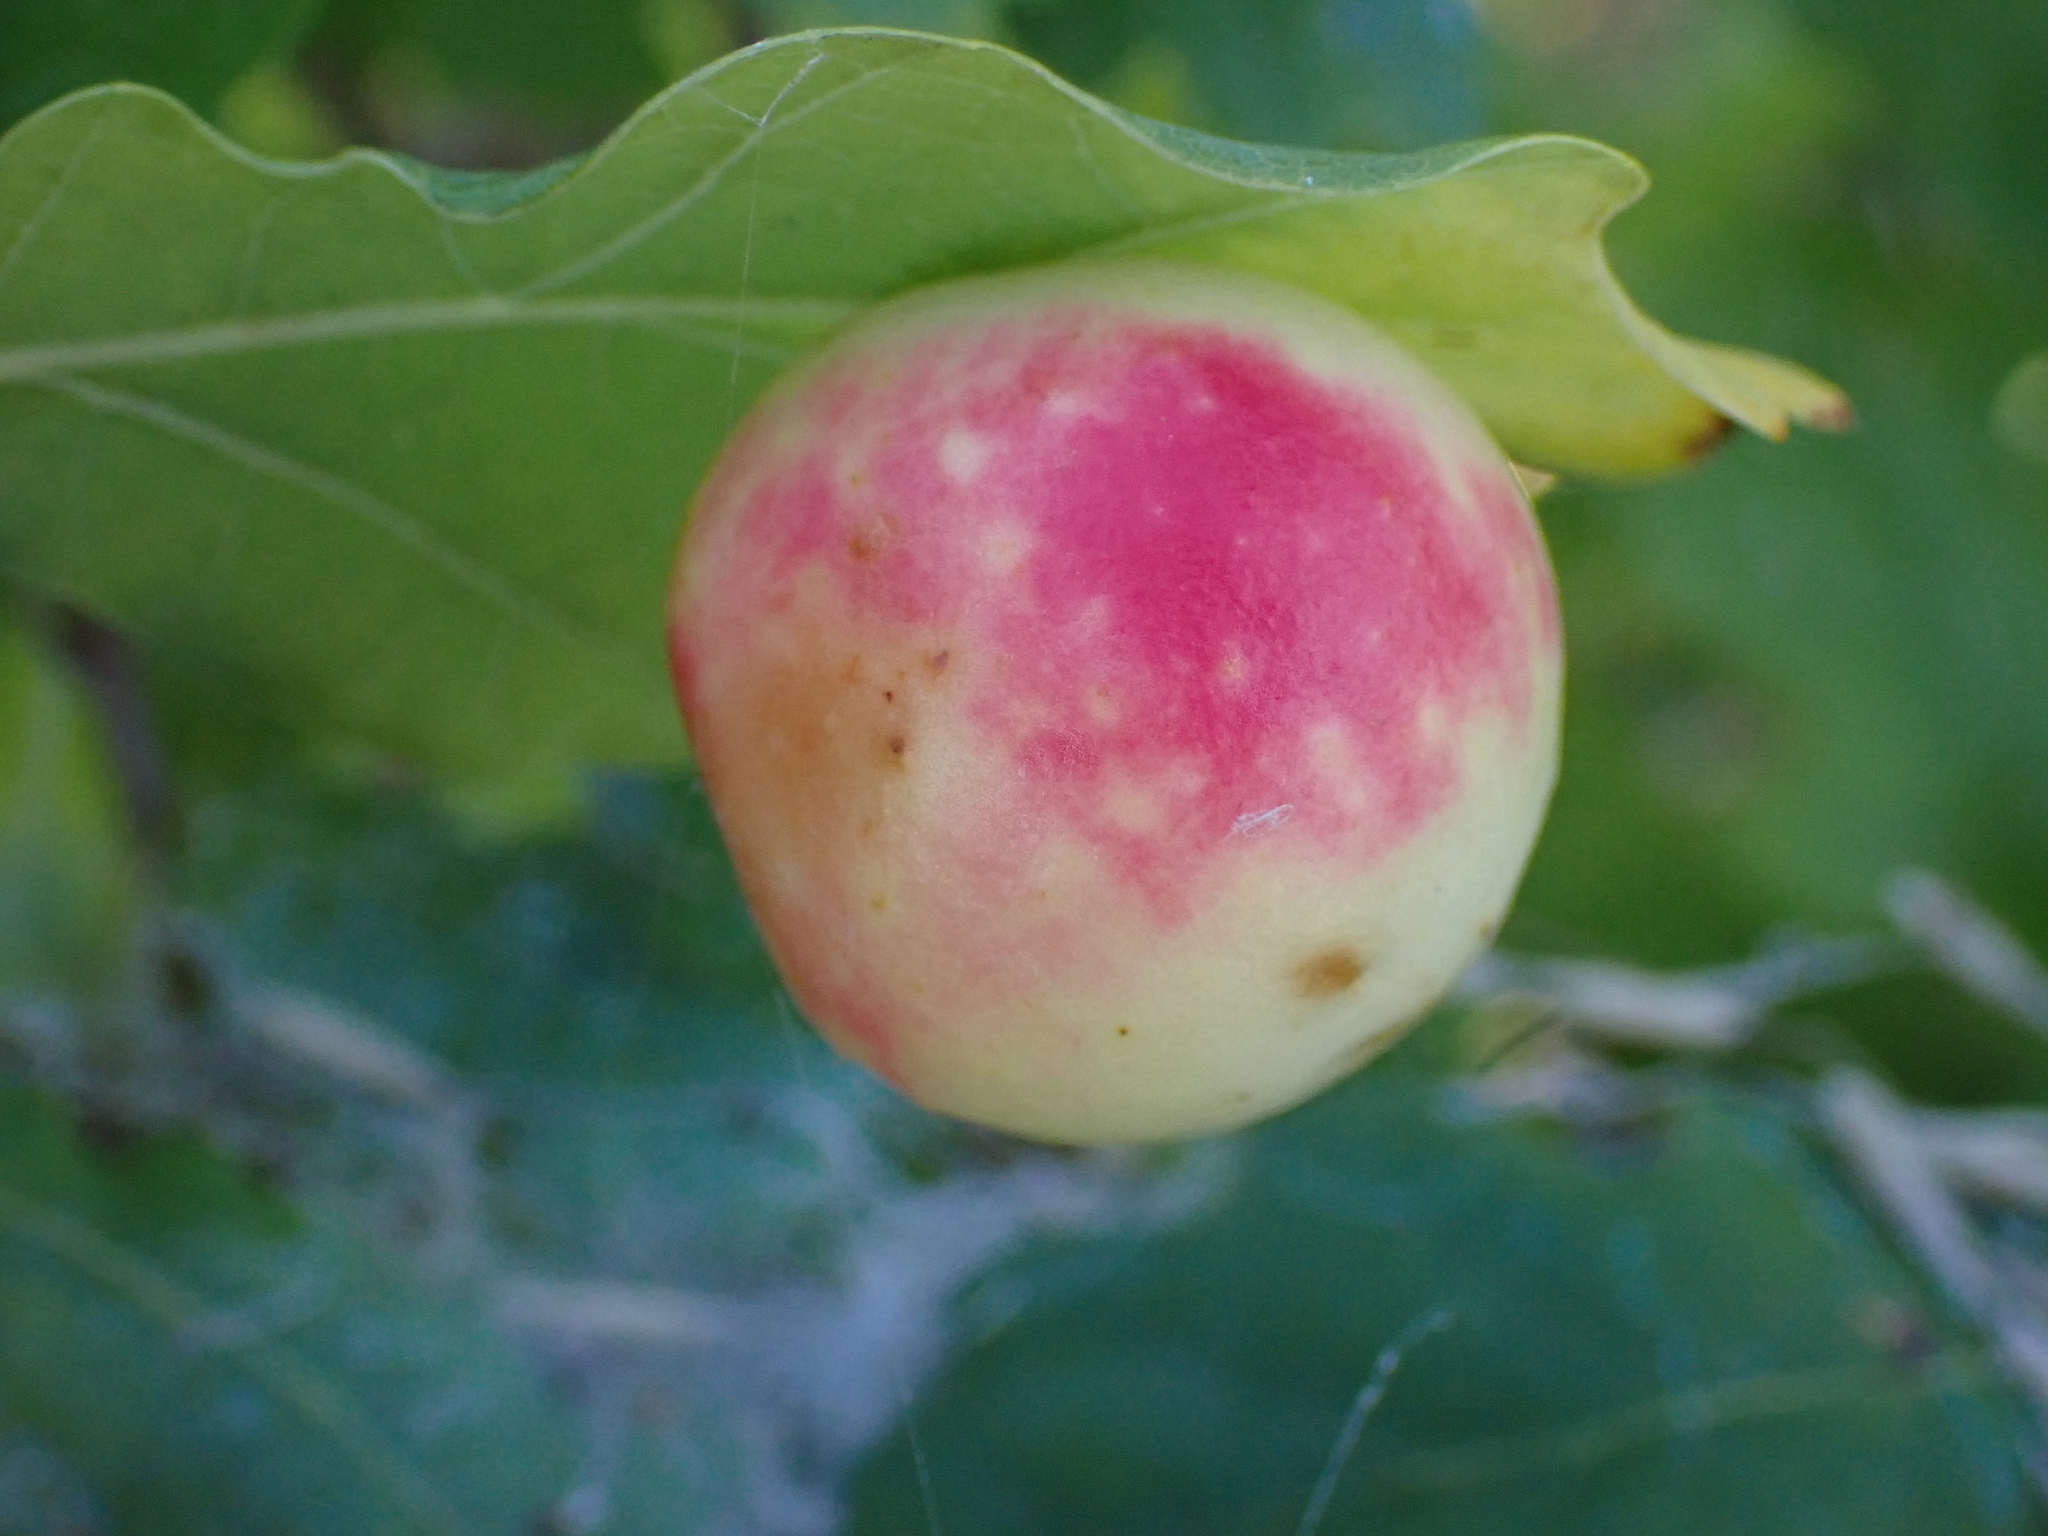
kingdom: Animalia
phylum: Arthropoda
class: Insecta
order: Hymenoptera
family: Cynipidae
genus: Cynips
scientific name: Cynips quercusfolii
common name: Cherry gall
